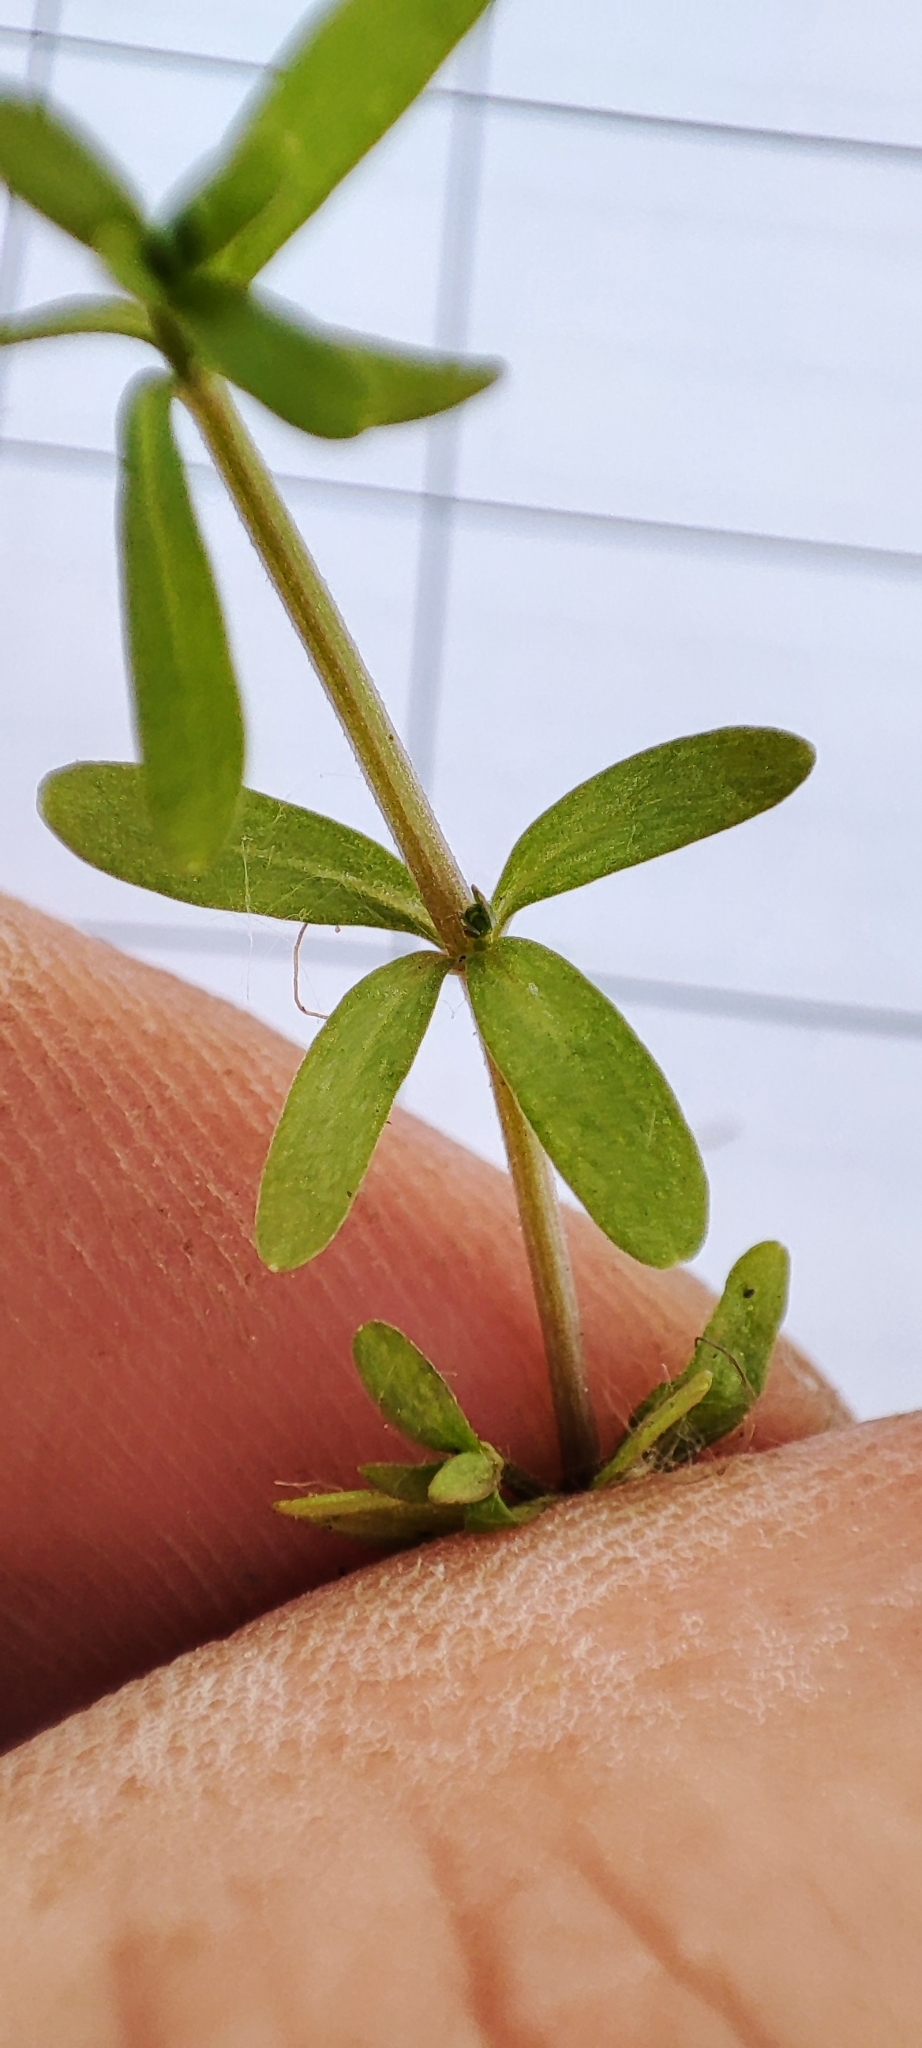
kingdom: Plantae
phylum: Tracheophyta
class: Magnoliopsida
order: Gentianales
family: Rubiaceae
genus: Galium
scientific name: Galium palustre
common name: Common marsh-bedstraw
